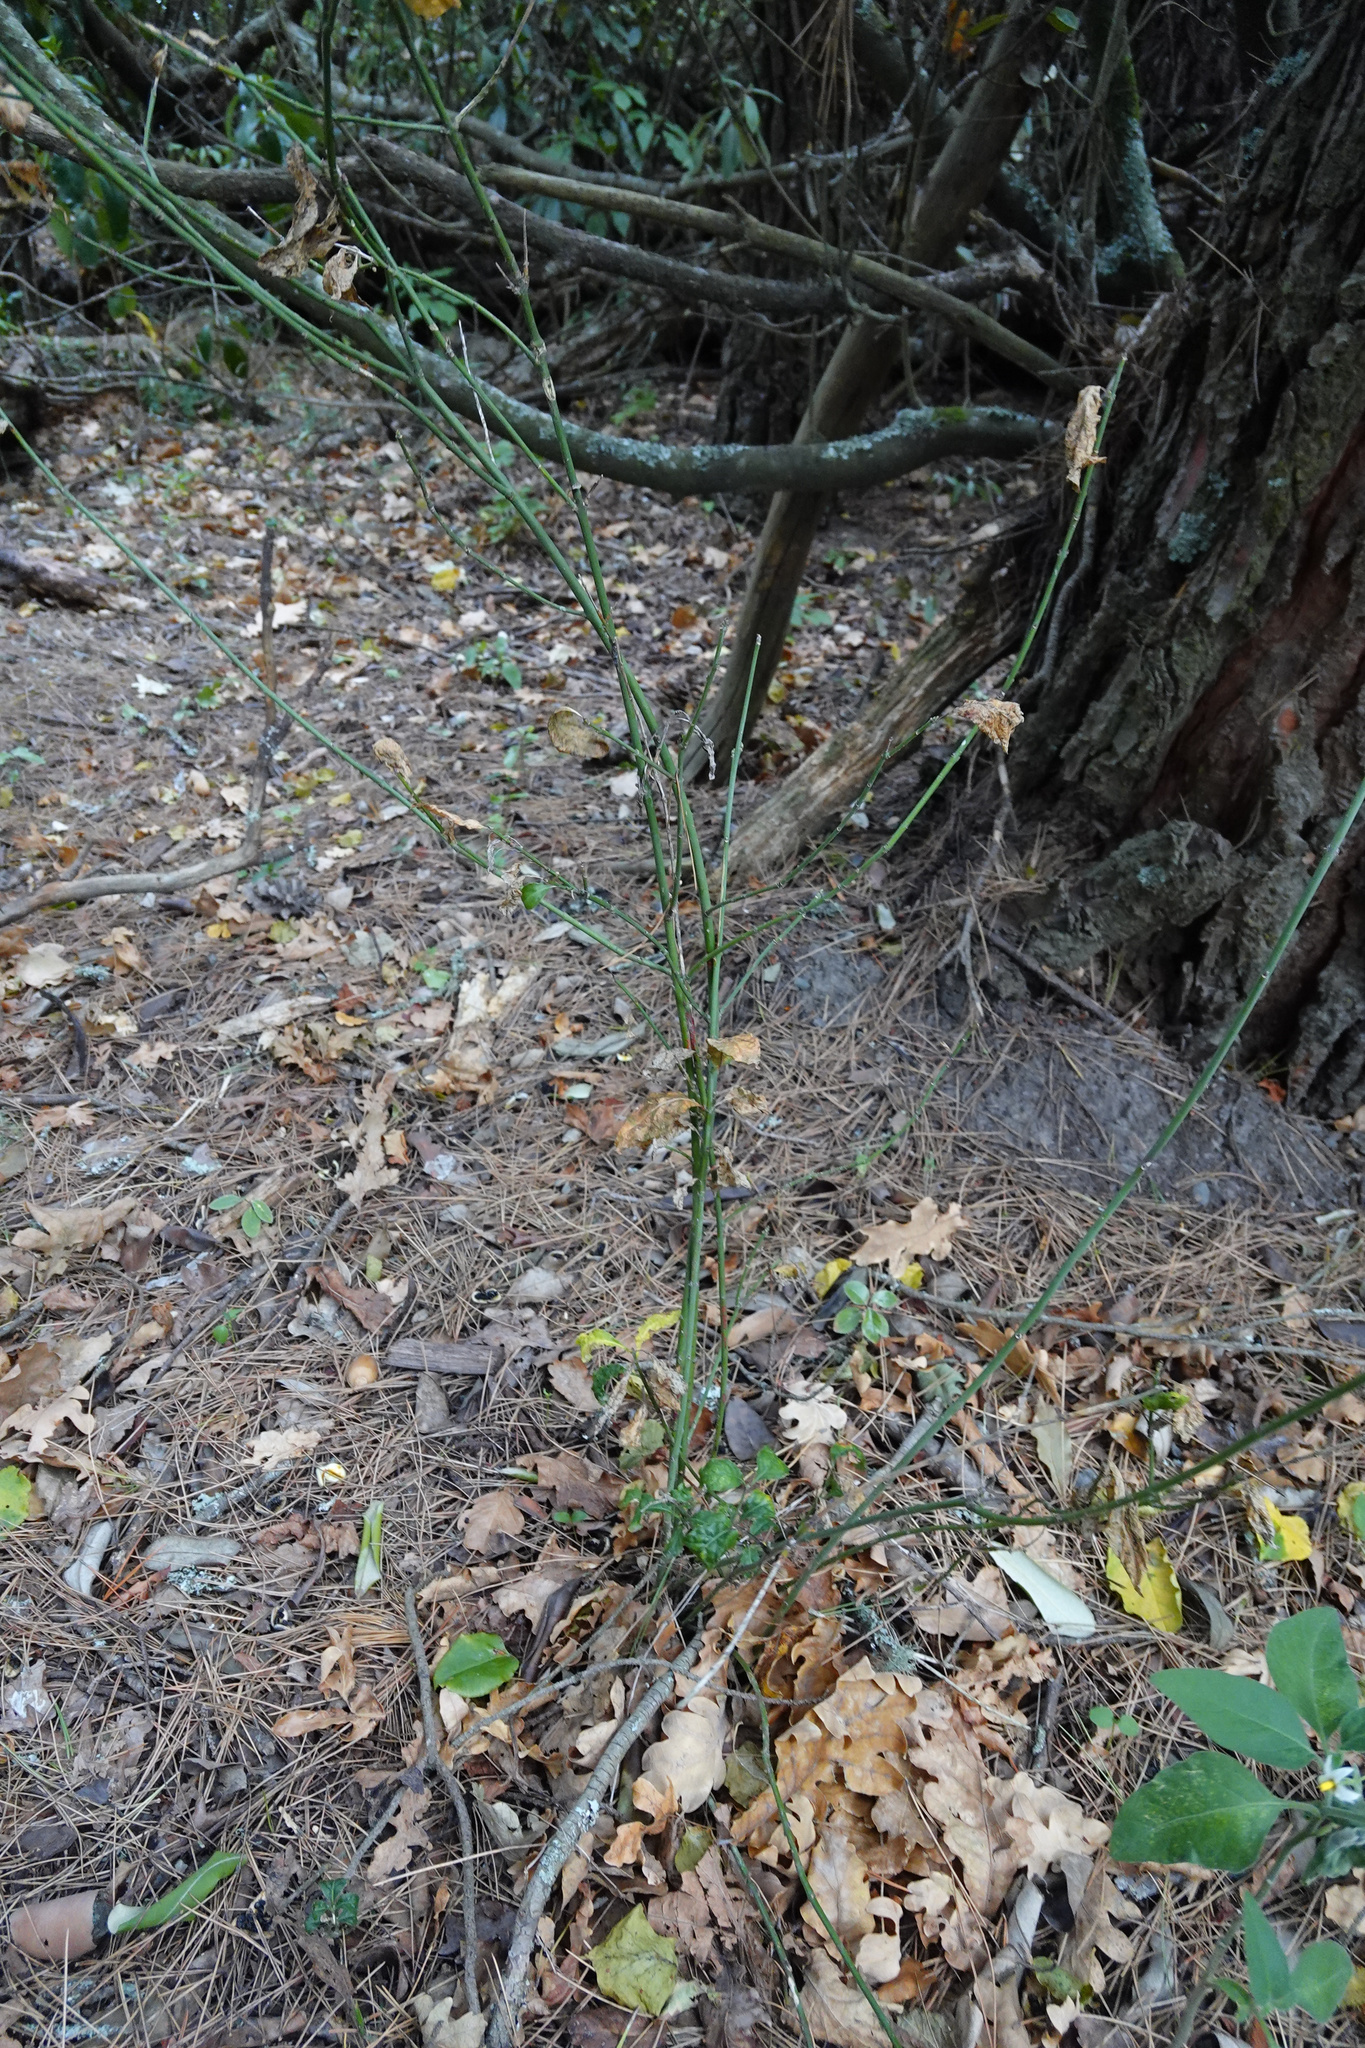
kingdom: Plantae
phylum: Tracheophyta
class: Magnoliopsida
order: Celastrales
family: Celastraceae
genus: Euonymus
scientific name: Euonymus europaeus
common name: Spindle
